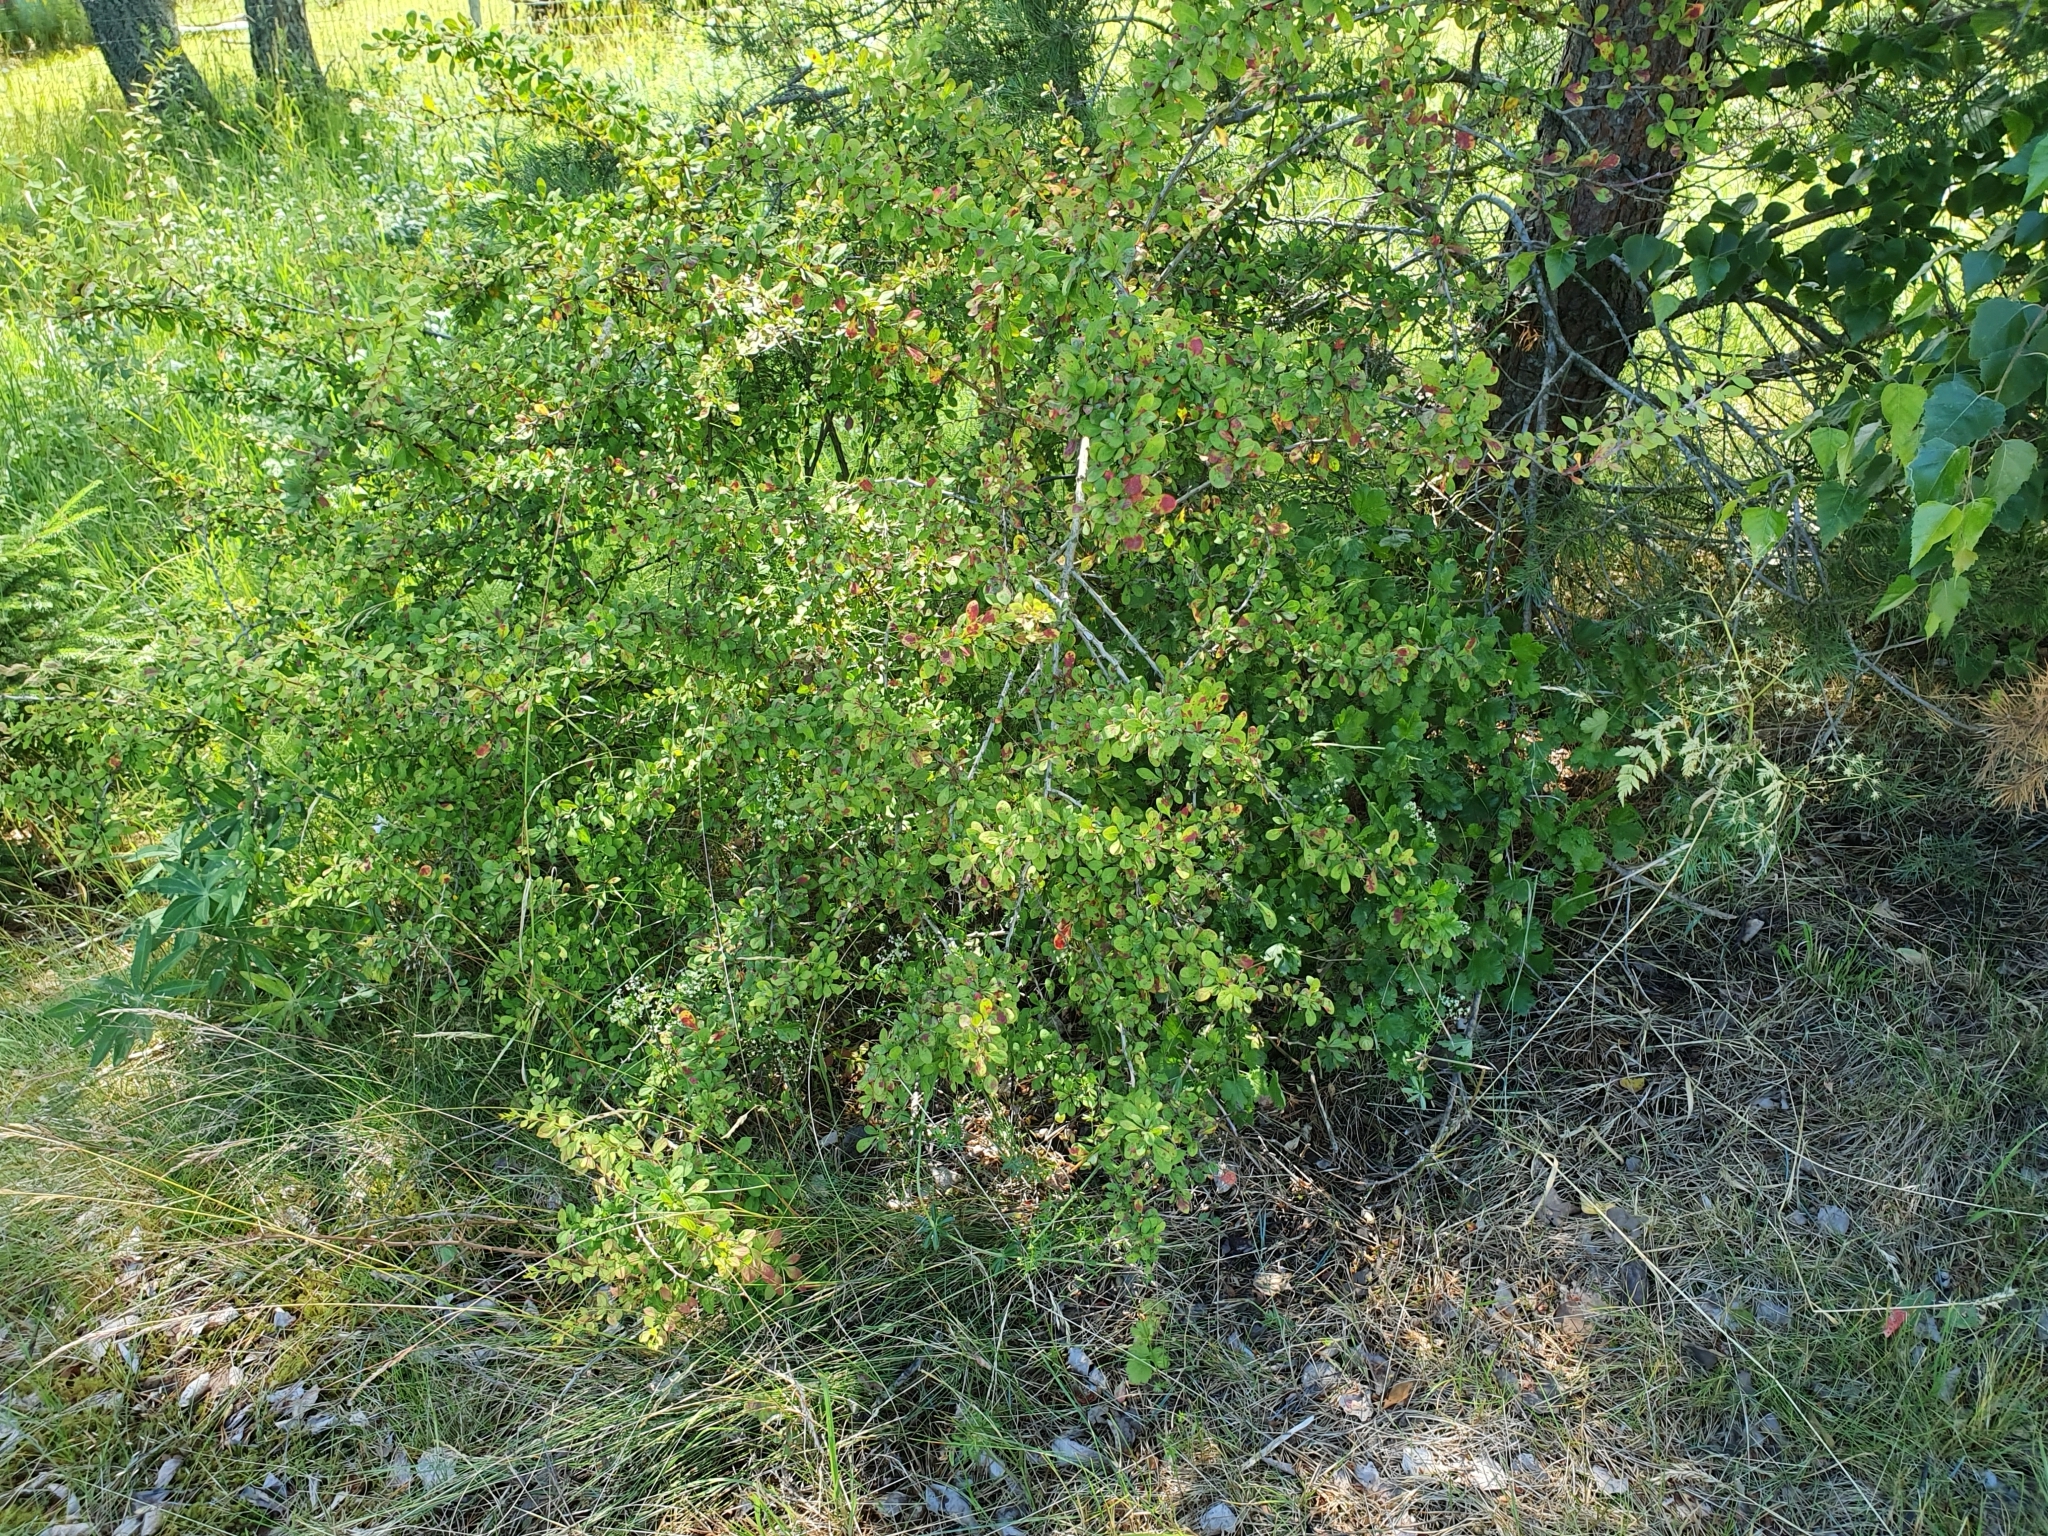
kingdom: Plantae
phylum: Tracheophyta
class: Magnoliopsida
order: Ranunculales
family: Berberidaceae
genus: Berberis
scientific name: Berberis thunbergii
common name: Japanese barberry
